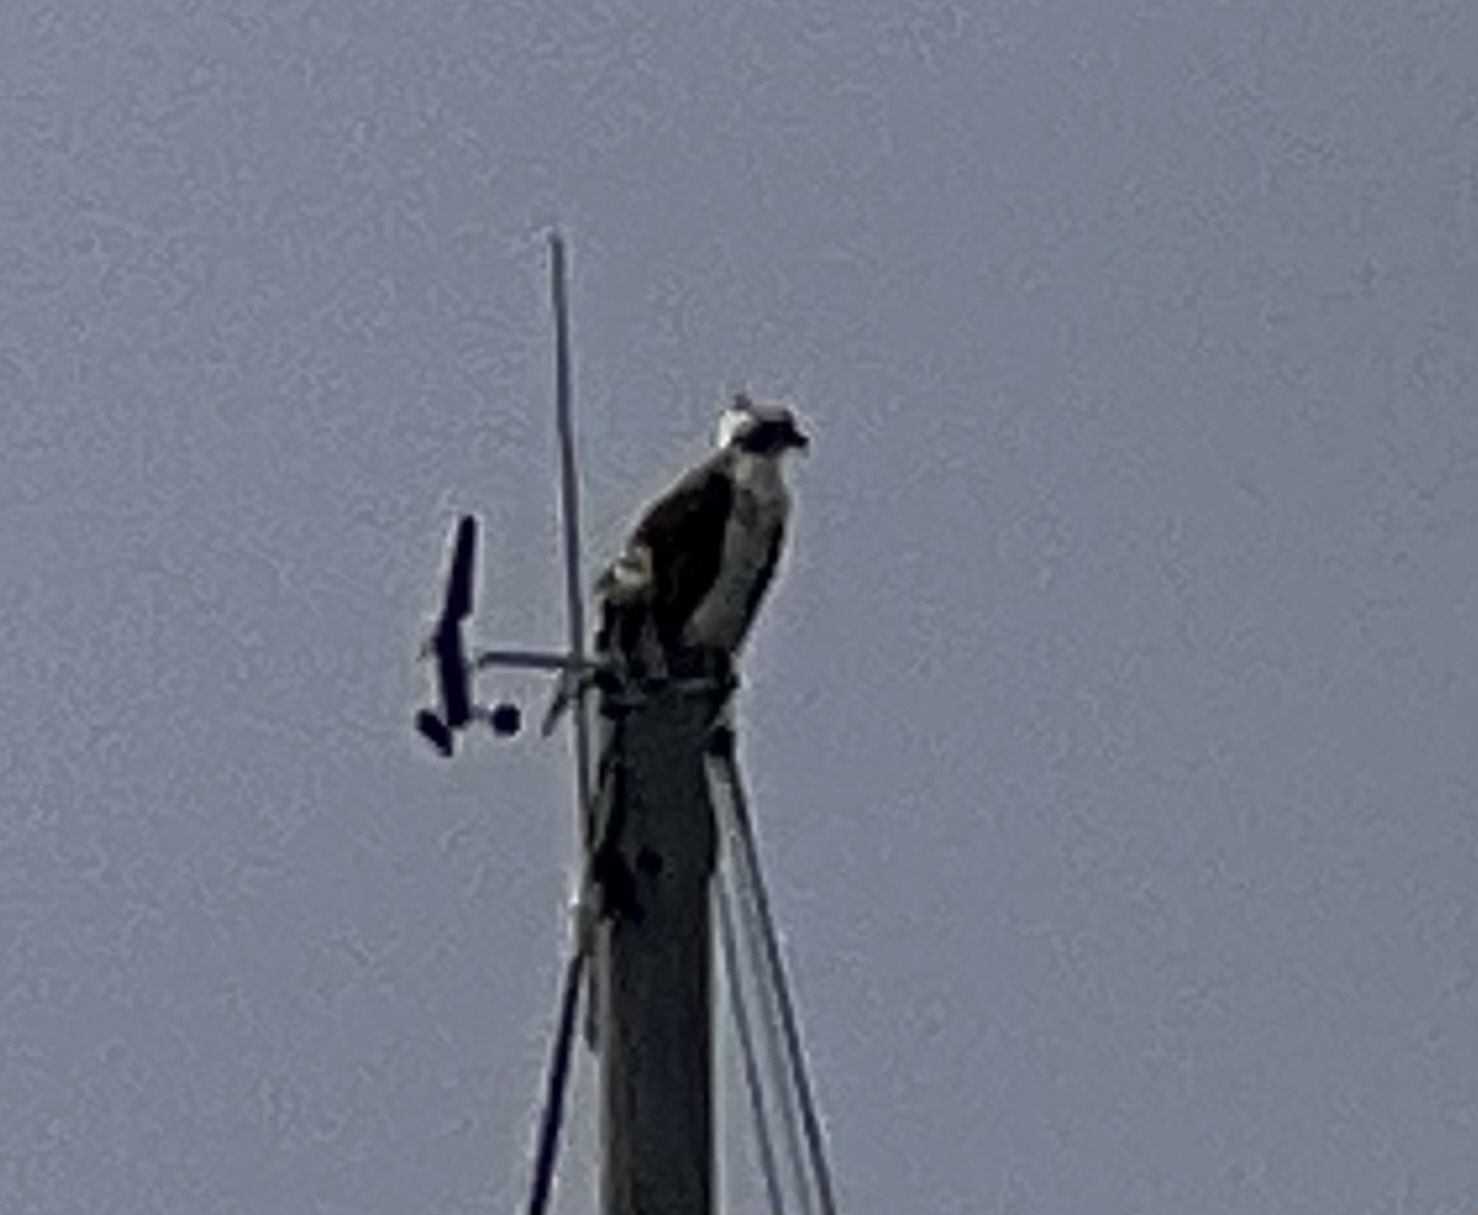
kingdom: Animalia
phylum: Chordata
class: Aves
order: Accipitriformes
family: Pandionidae
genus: Pandion
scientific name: Pandion haliaetus
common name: Osprey
